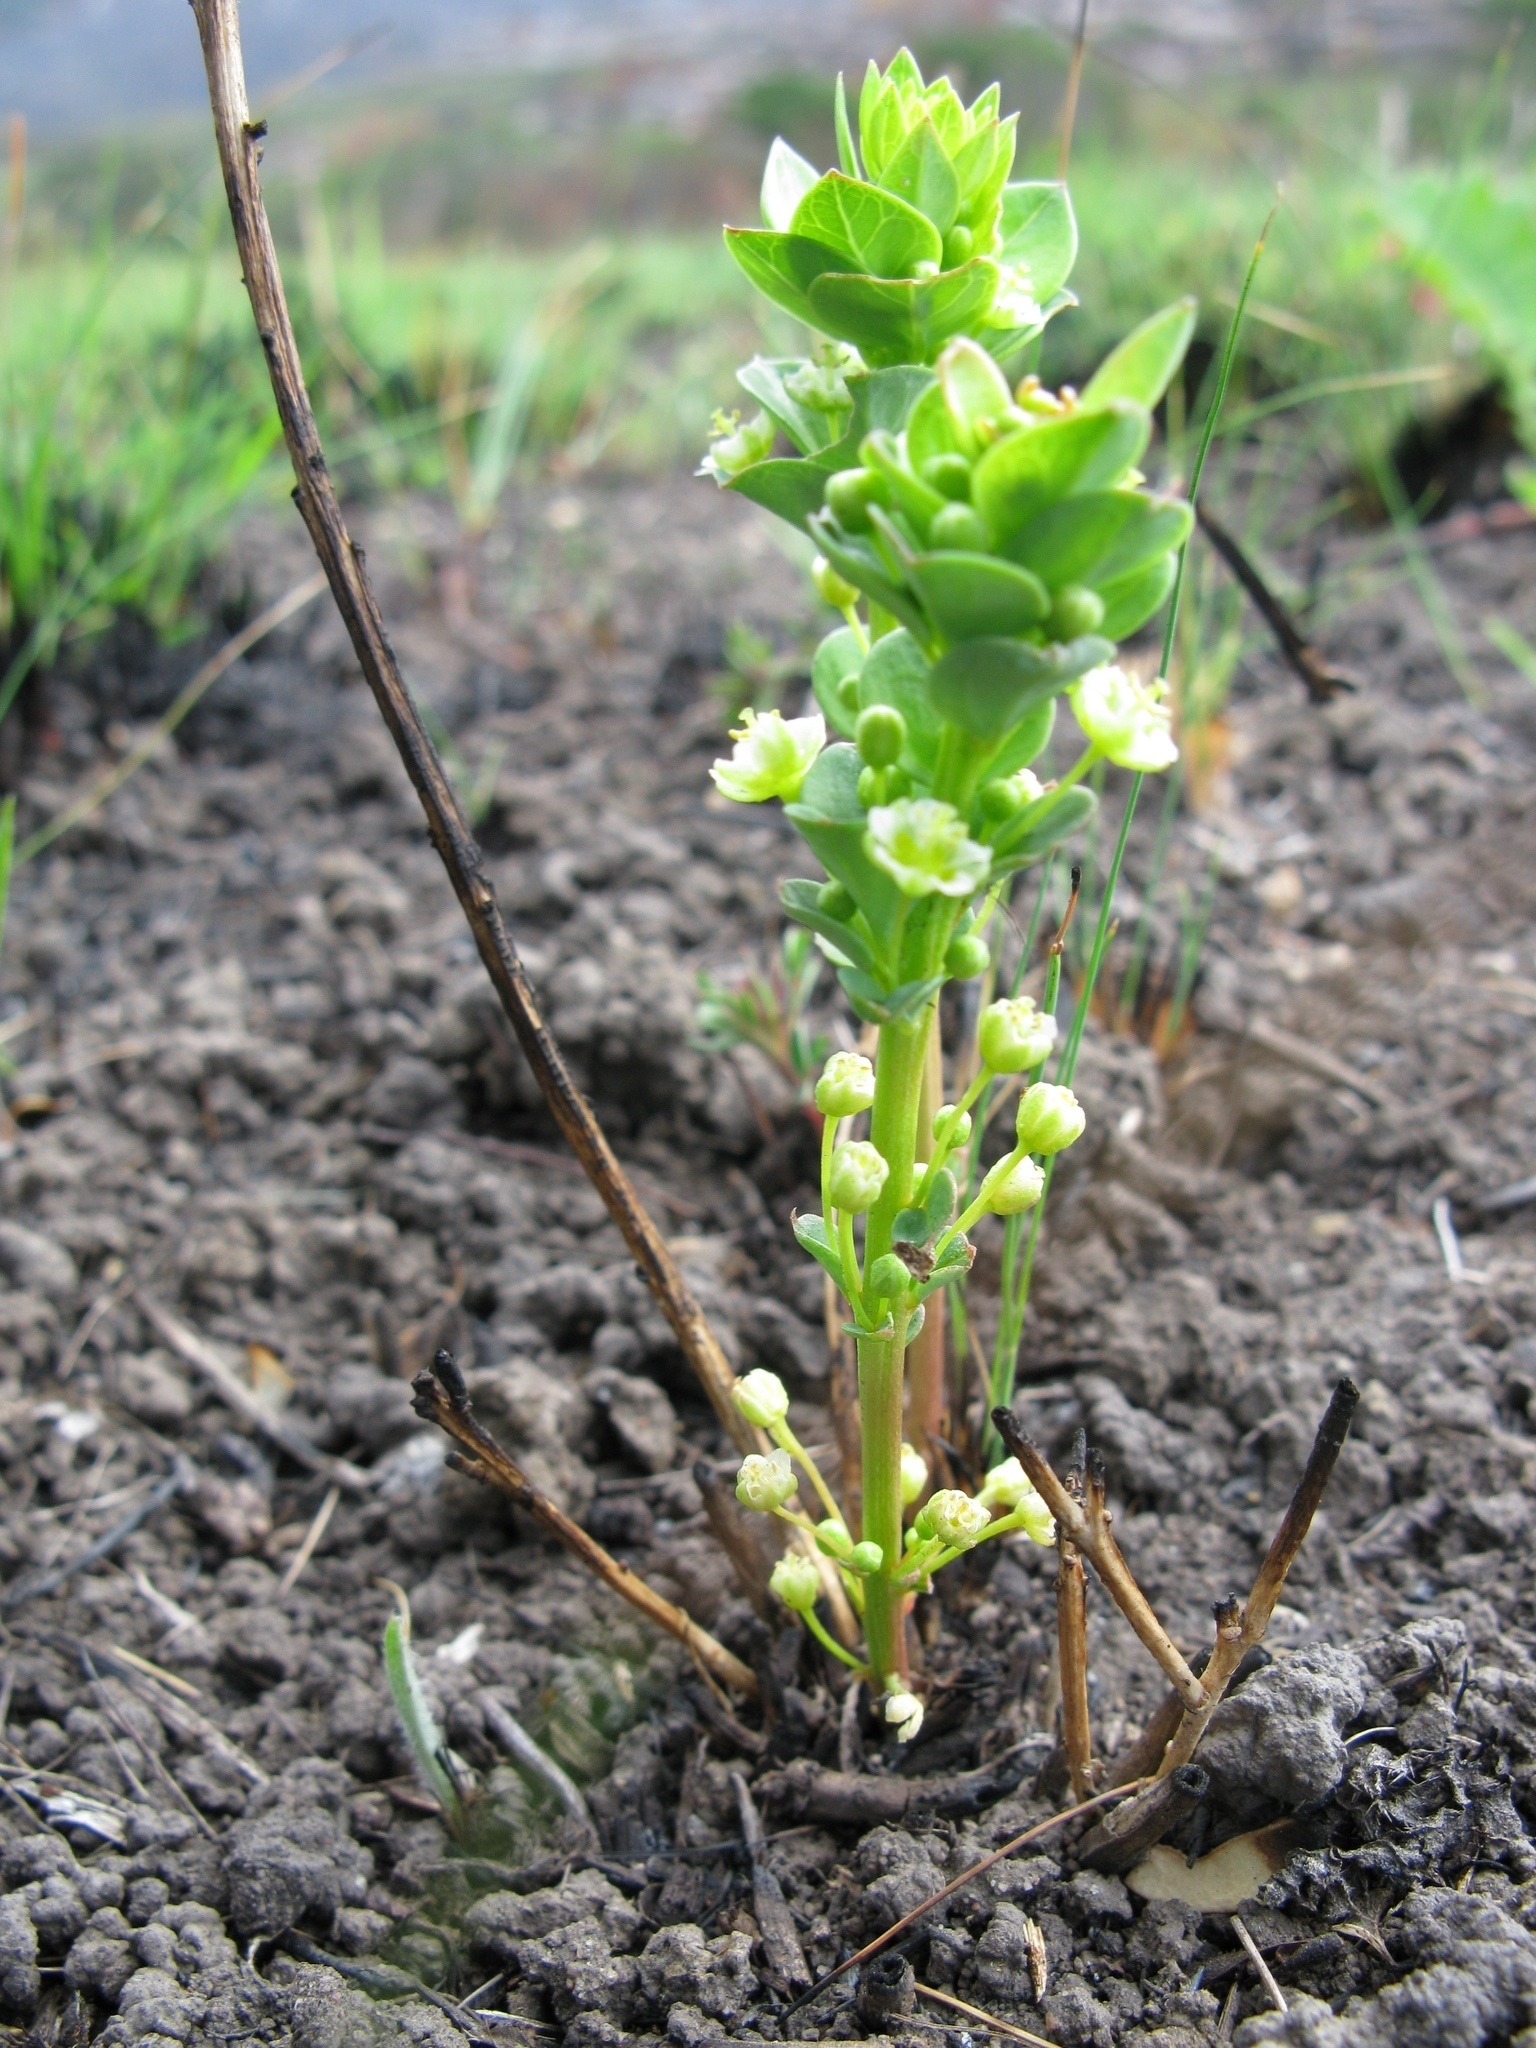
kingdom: Plantae
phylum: Tracheophyta
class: Magnoliopsida
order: Malpighiales
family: Peraceae
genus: Clutia
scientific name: Clutia disceptata
